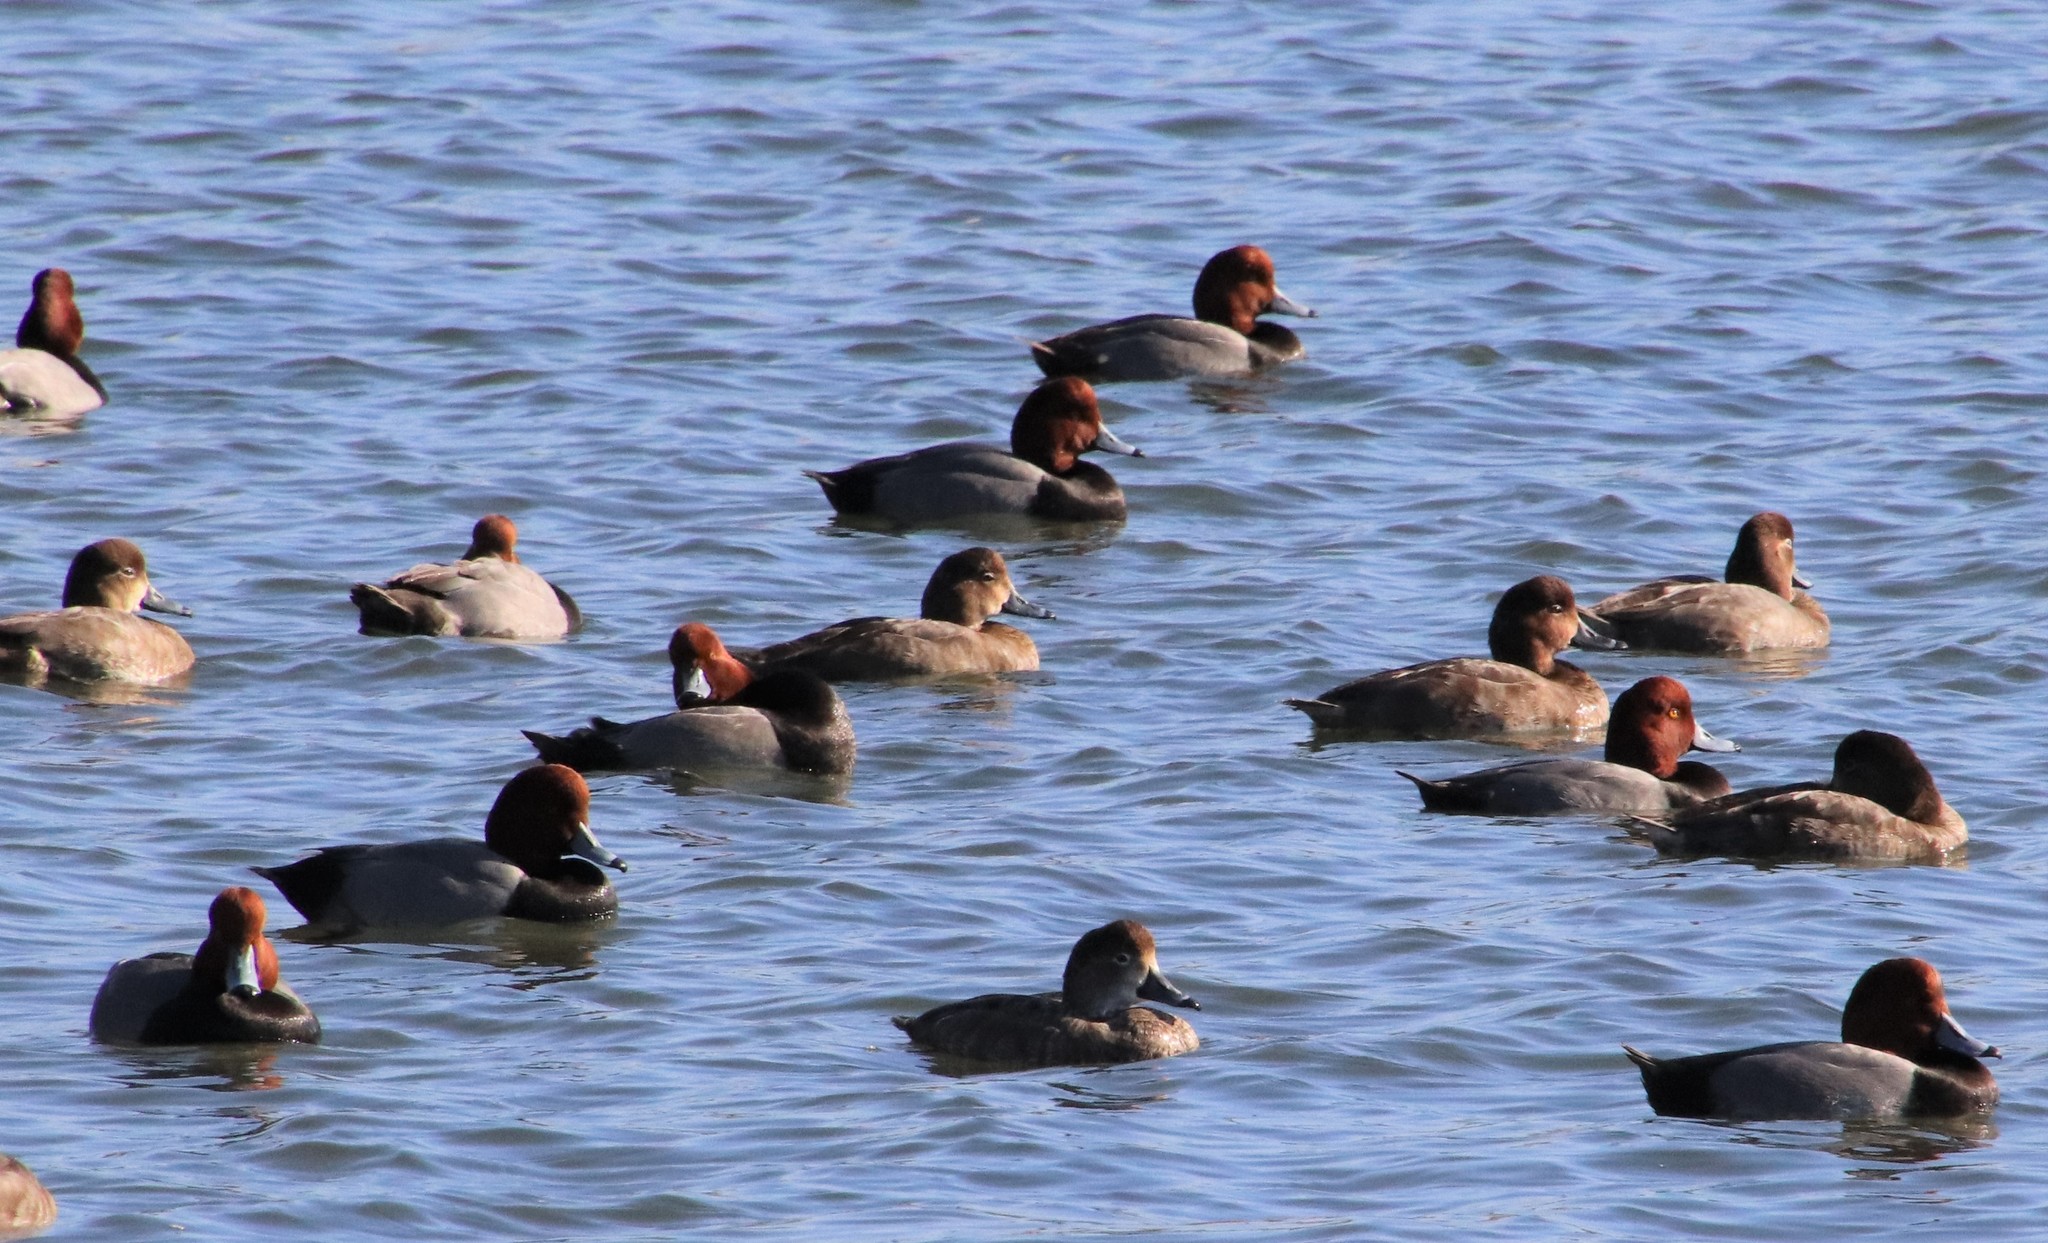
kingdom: Animalia
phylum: Chordata
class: Aves
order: Anseriformes
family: Anatidae
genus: Aythya
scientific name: Aythya americana
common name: Redhead
